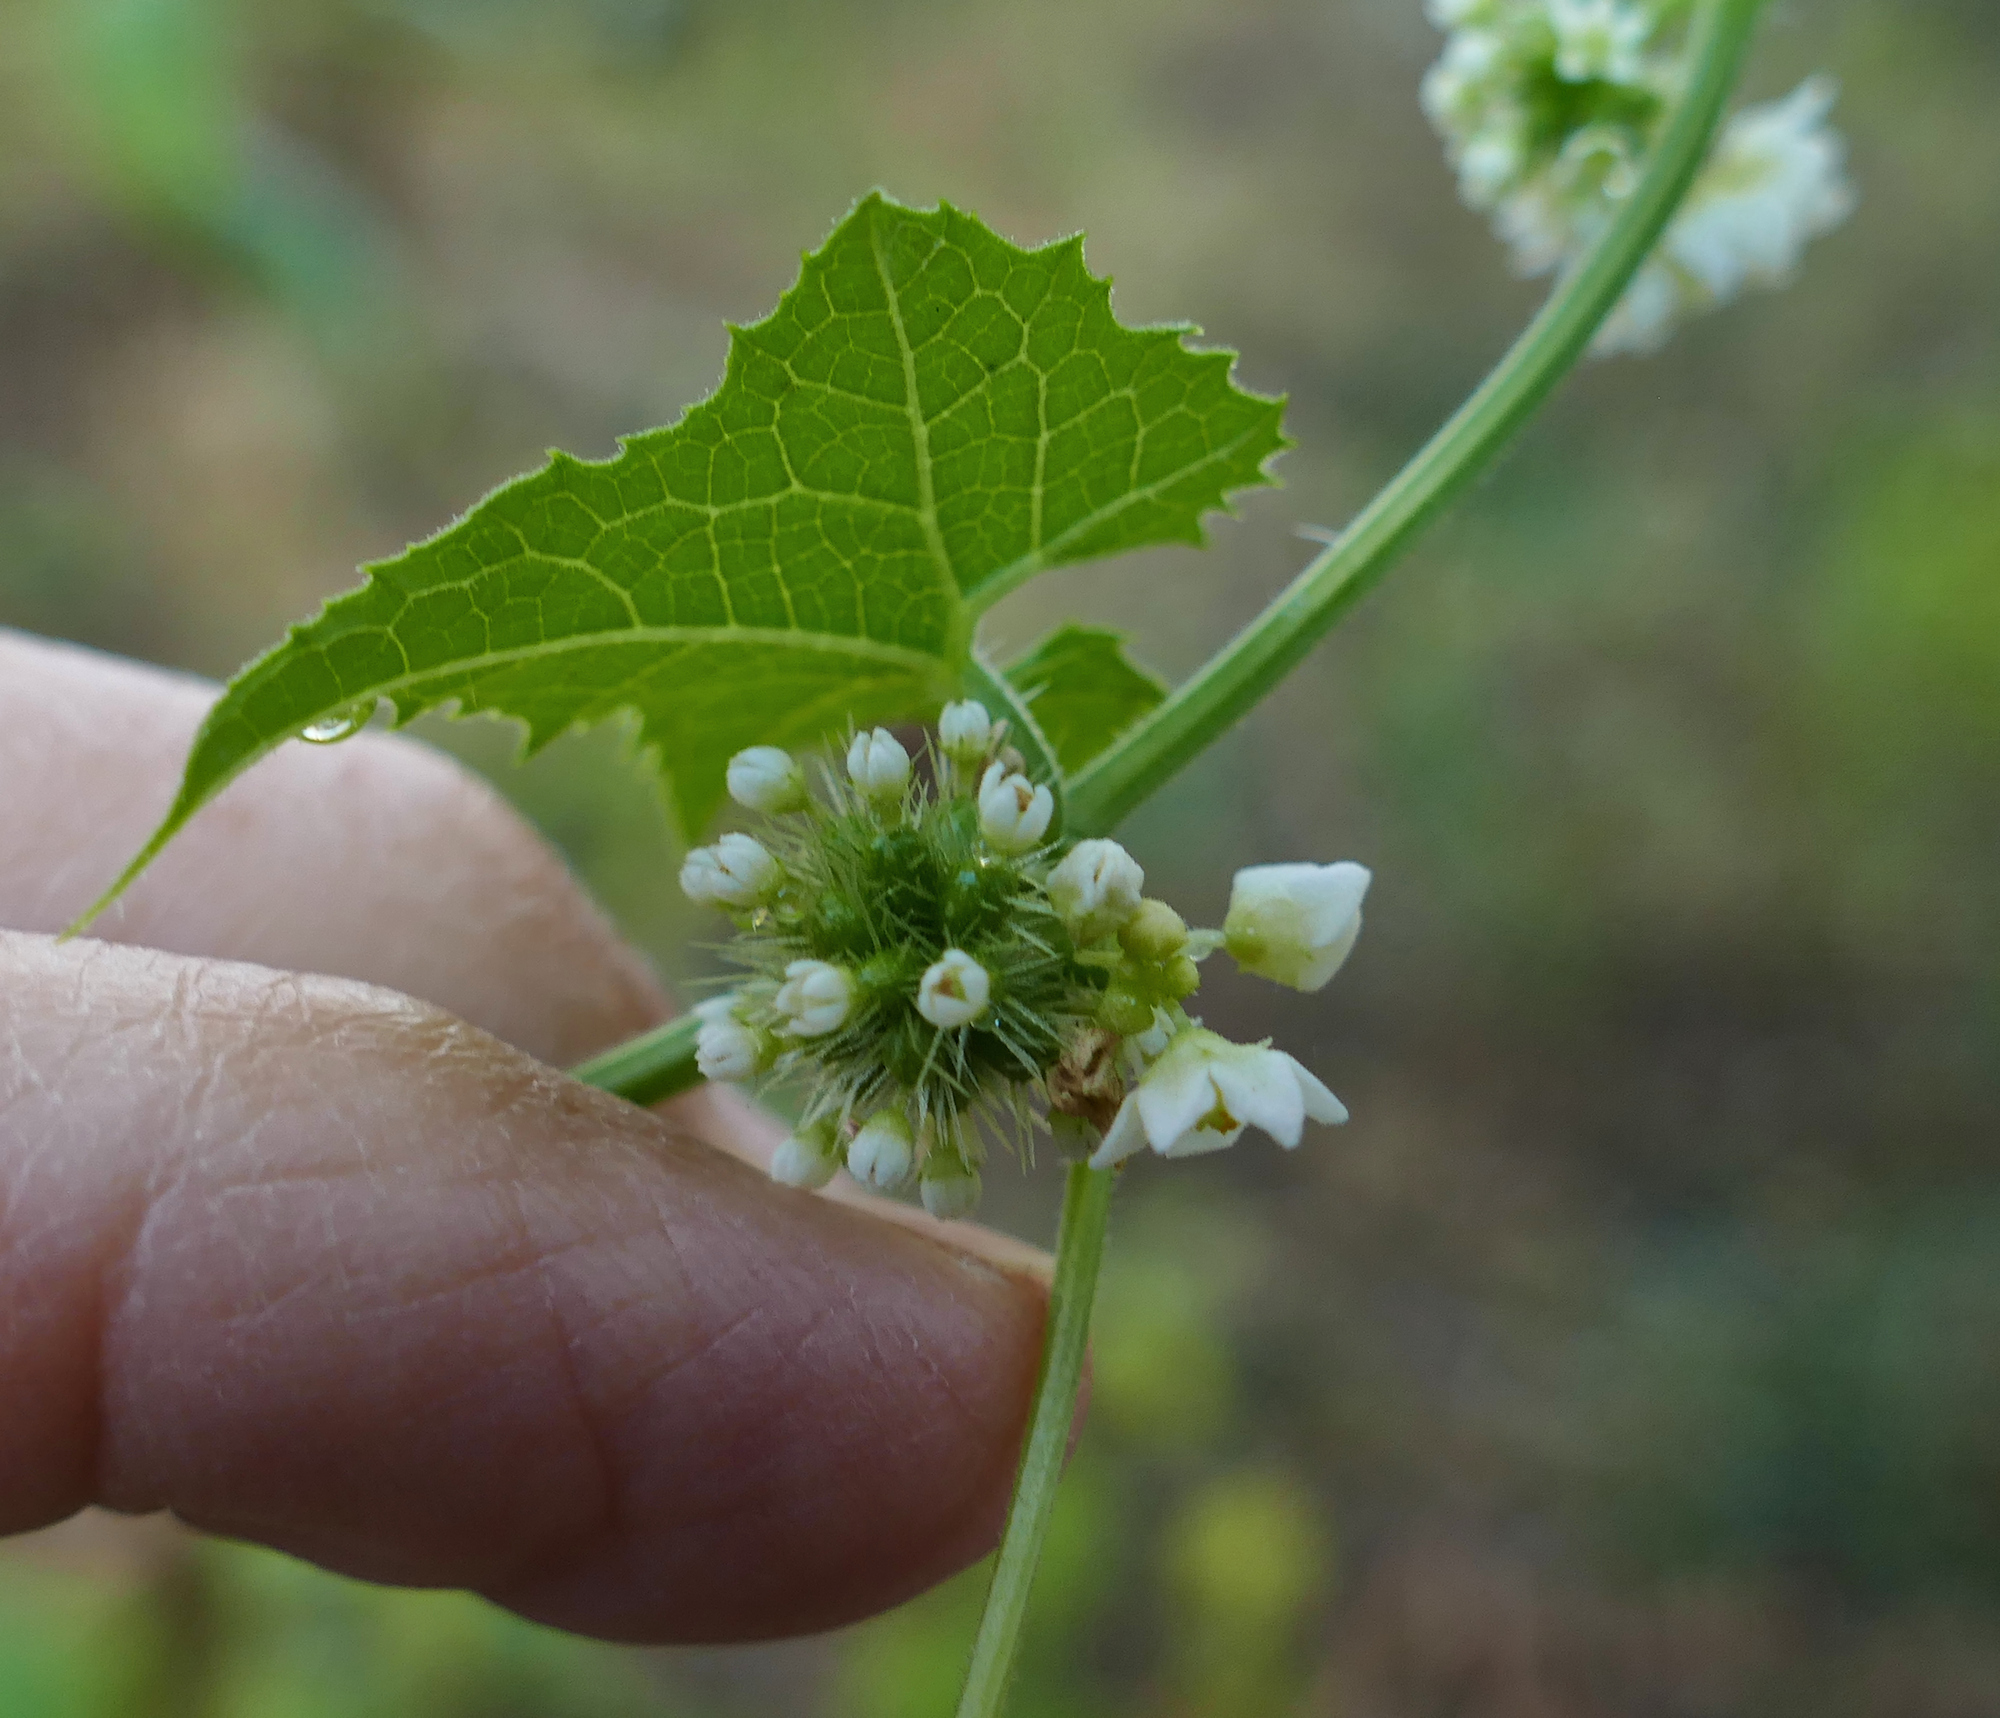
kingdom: Plantae
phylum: Tracheophyta
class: Magnoliopsida
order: Cucurbitales
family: Cucurbitaceae
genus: Sicyos
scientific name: Sicyos laciniatus
